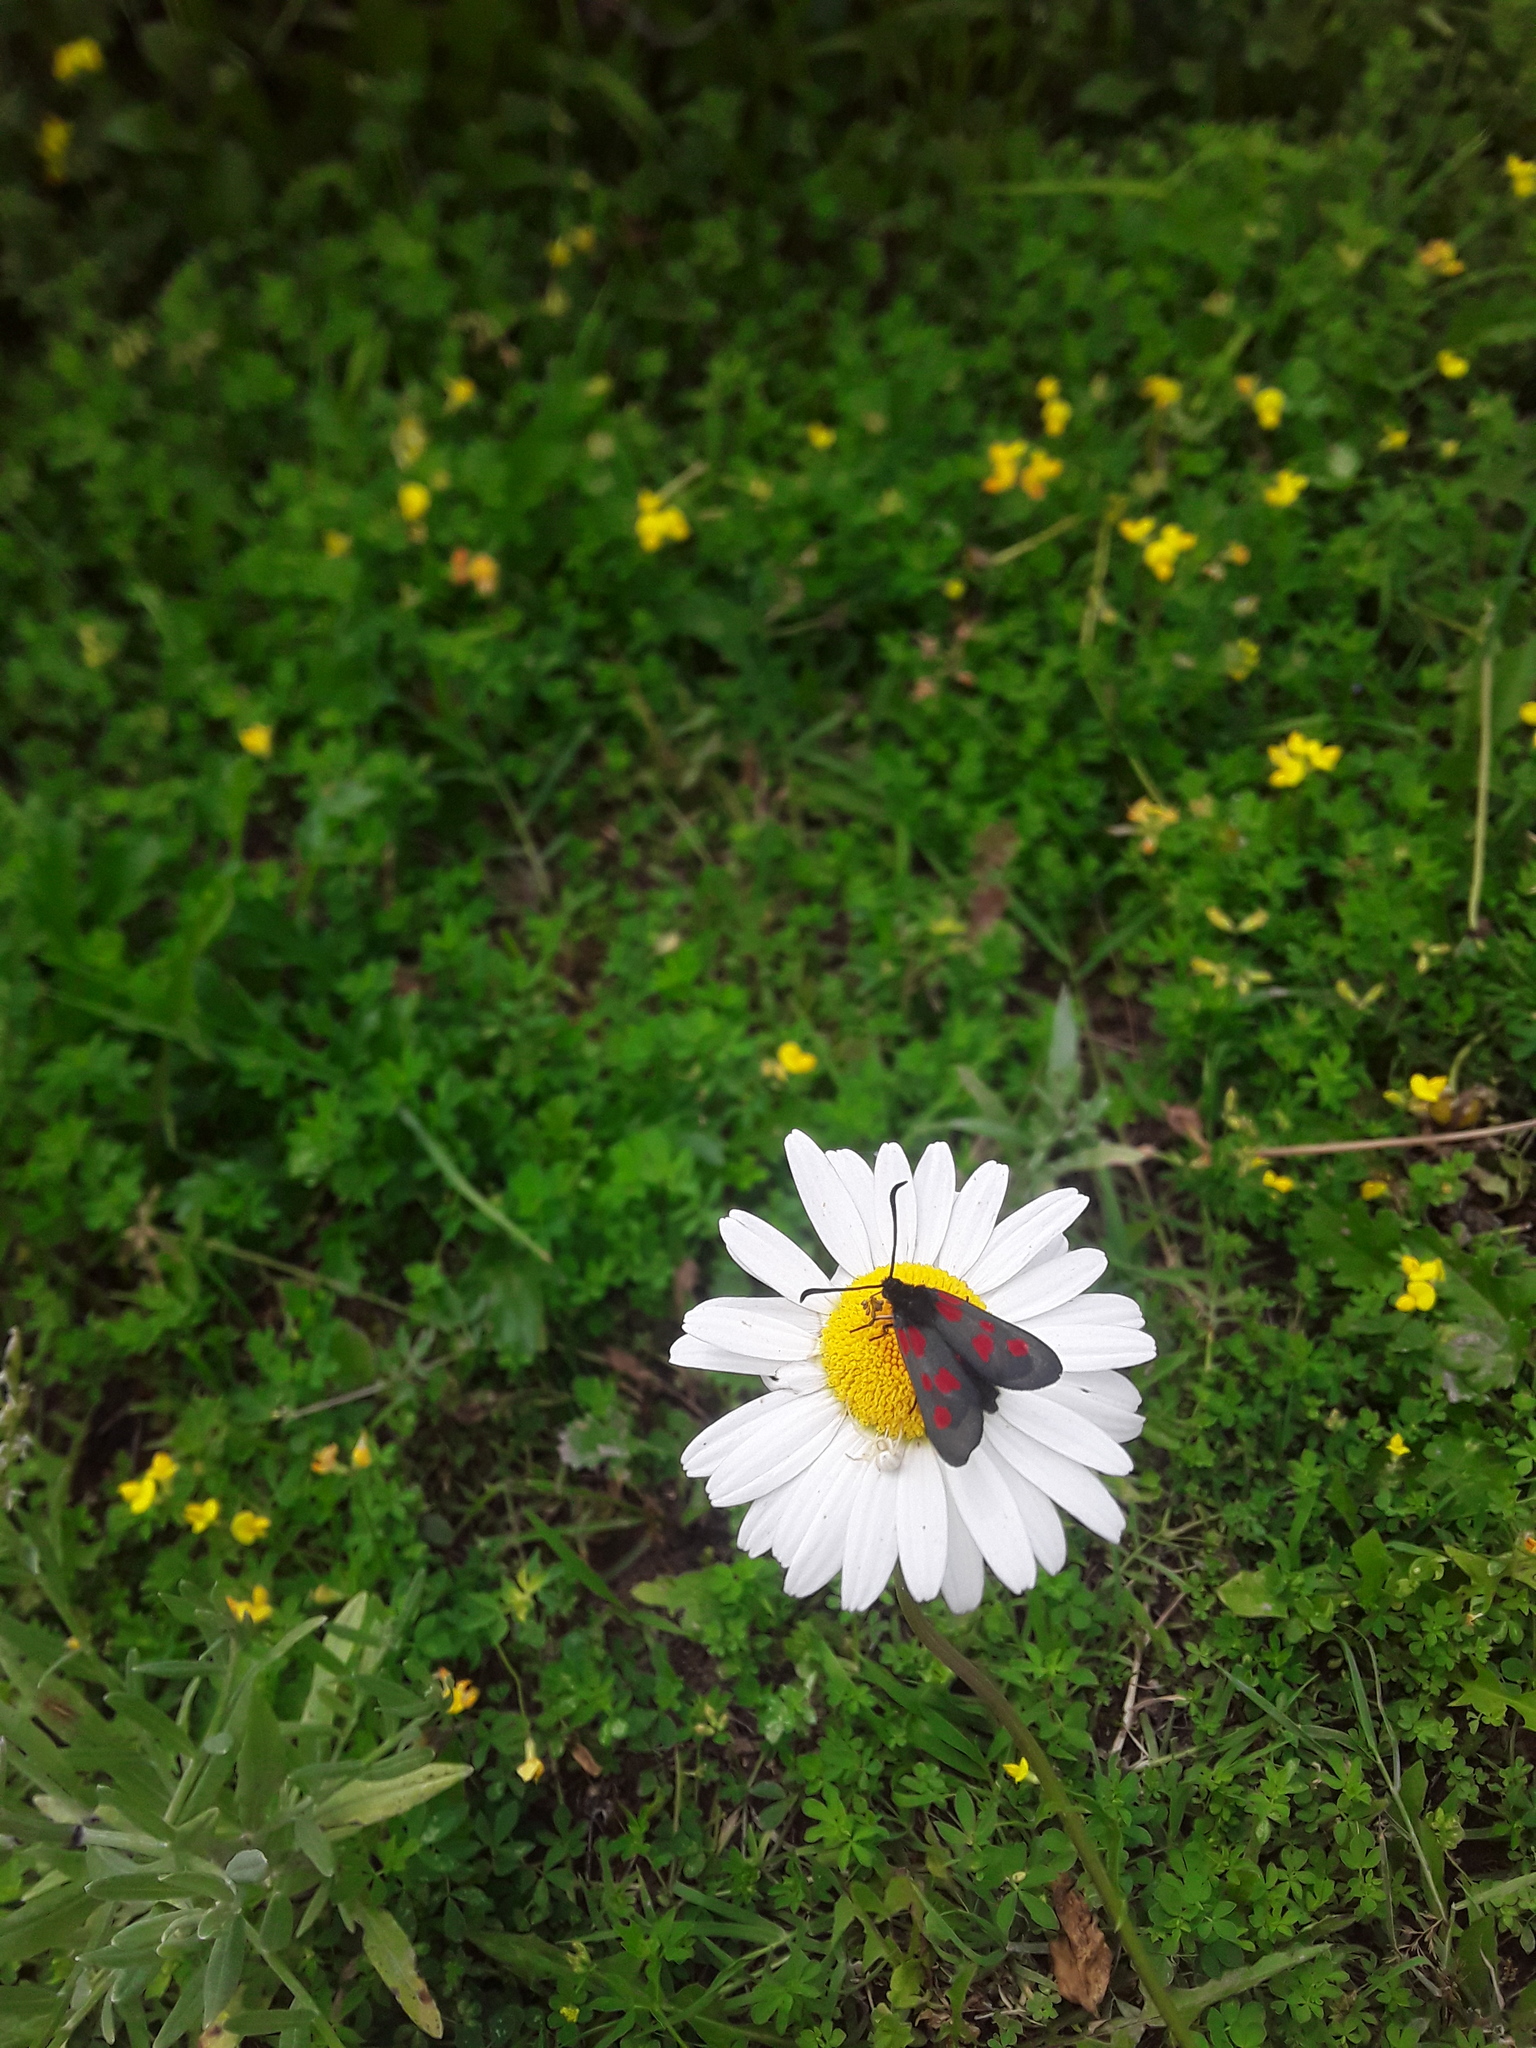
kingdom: Animalia
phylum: Arthropoda
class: Insecta
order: Lepidoptera
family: Zygaenidae
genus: Zygaena
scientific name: Zygaena viciae
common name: New forest burnet
